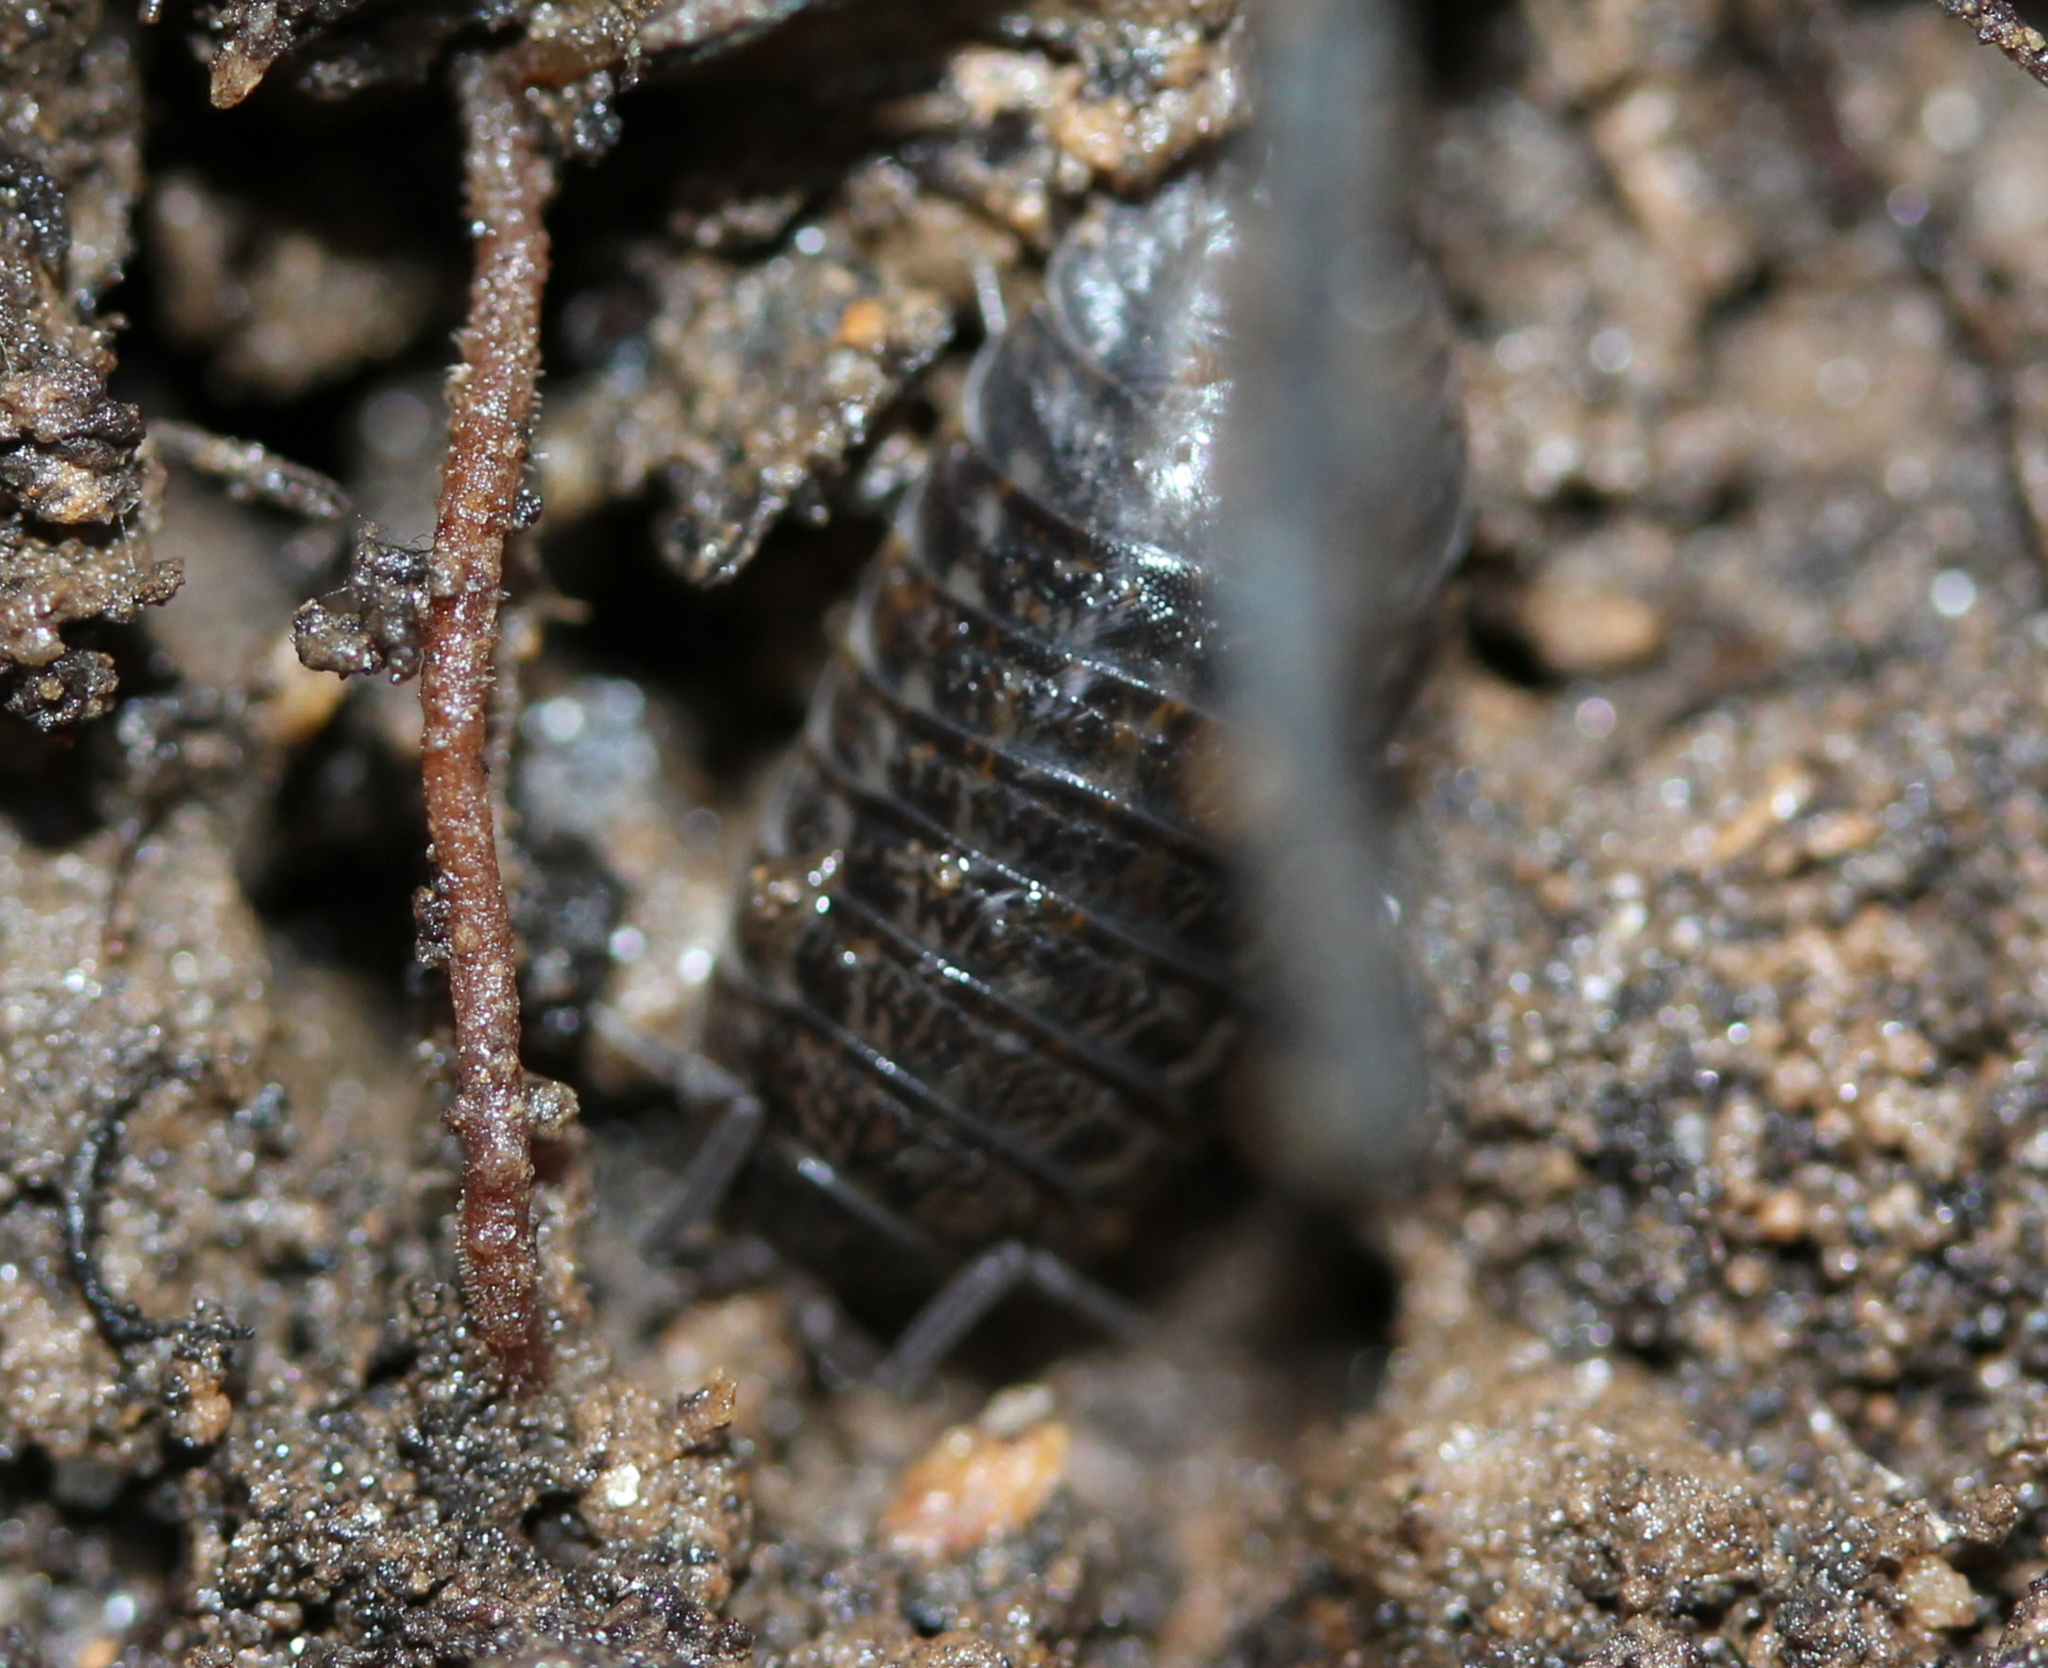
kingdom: Animalia
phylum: Arthropoda
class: Malacostraca
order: Isopoda
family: Trachelipodidae
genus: Trachelipus
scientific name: Trachelipus rathkii
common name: Isopod
